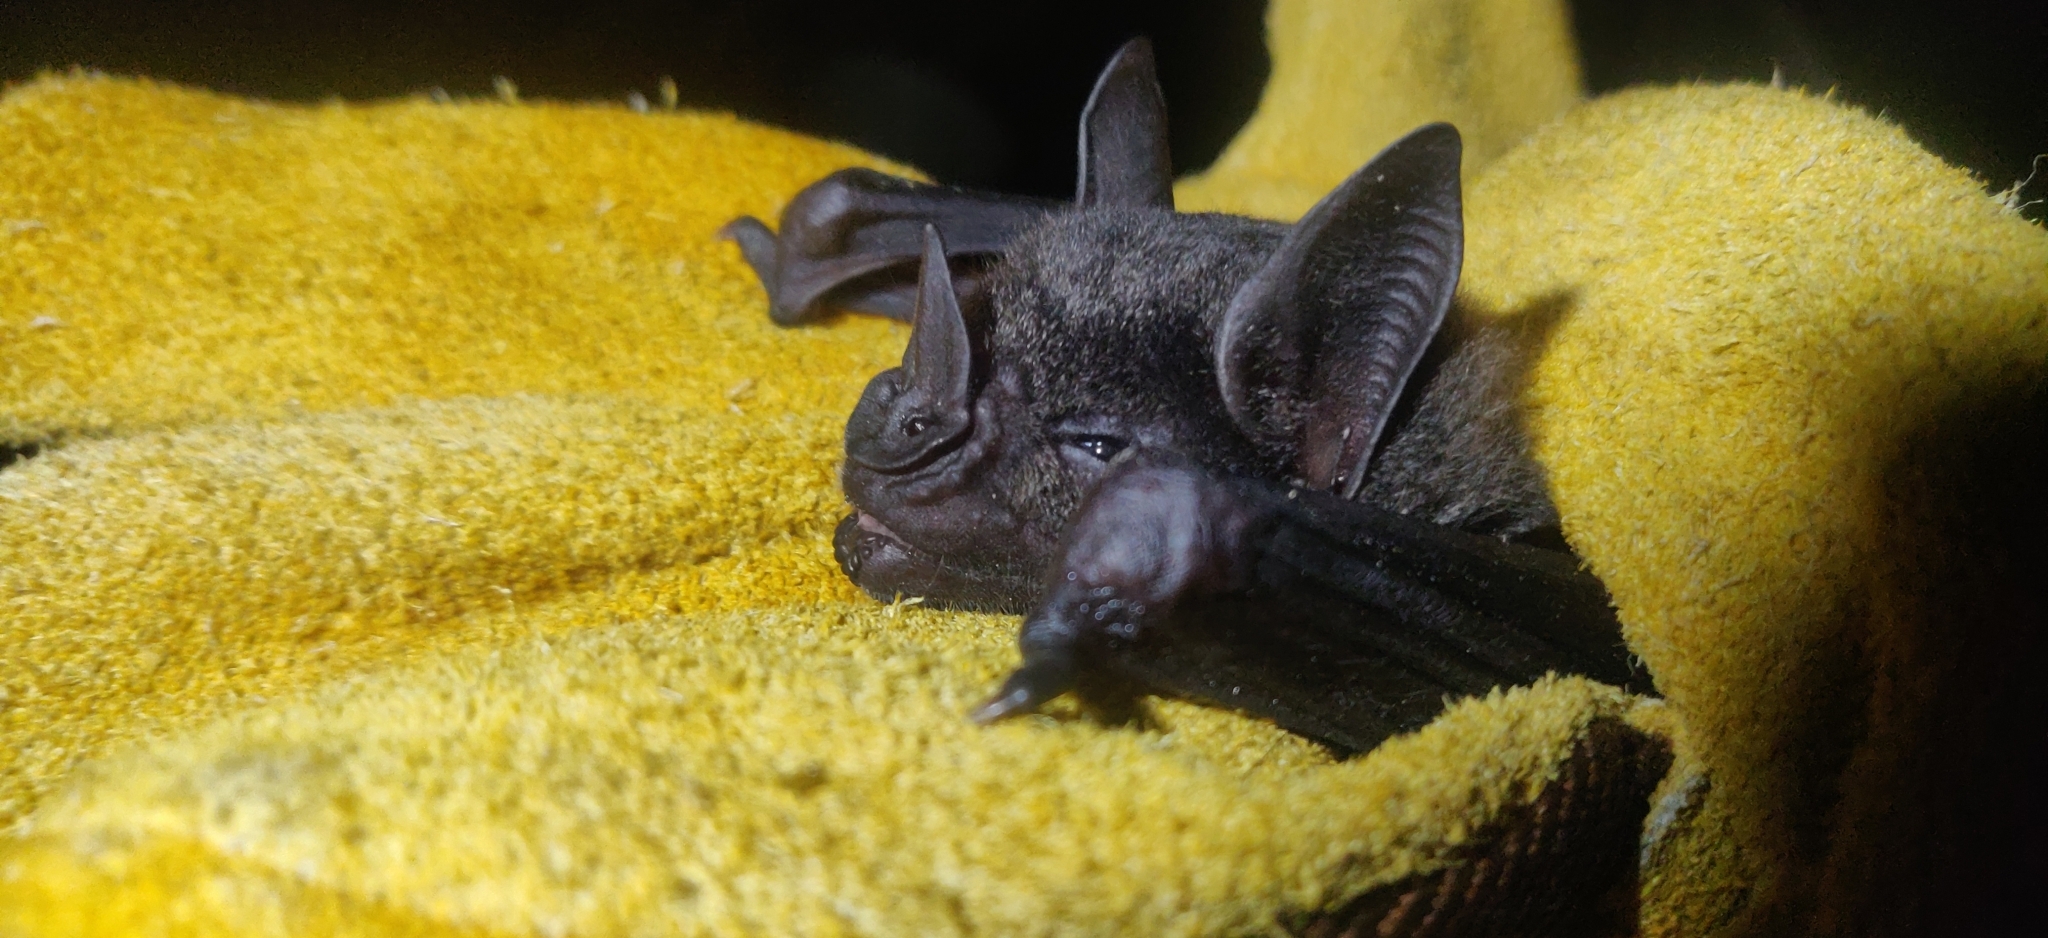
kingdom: Animalia
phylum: Chordata
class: Mammalia
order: Chiroptera
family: Phyllostomidae
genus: Phyllostomus
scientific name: Phyllostomus hastatus
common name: Greater spear-nosed bat
